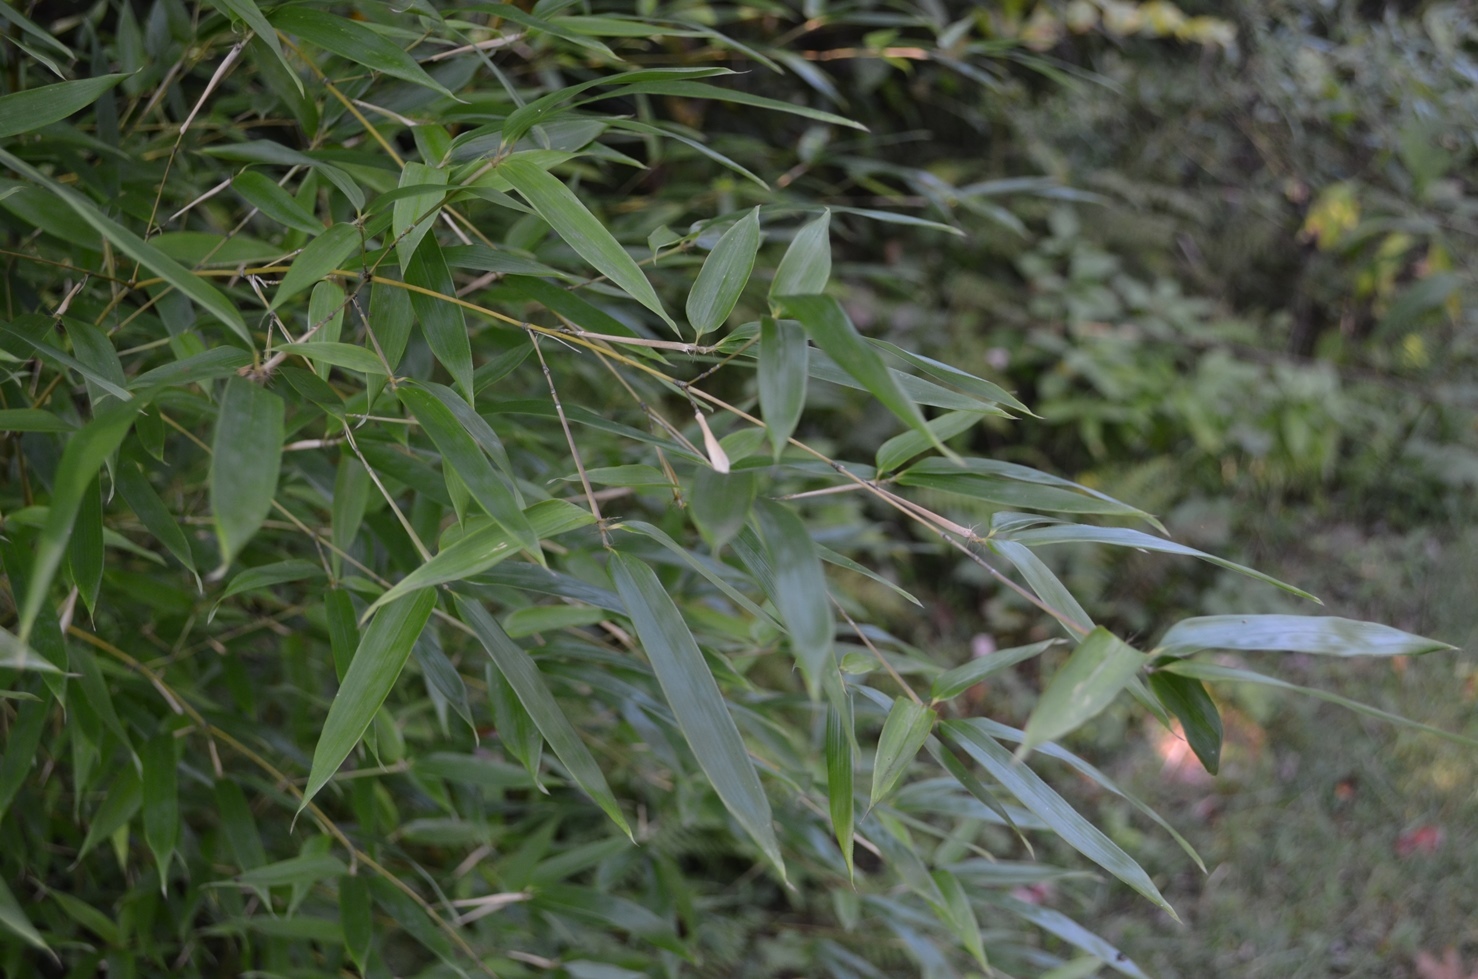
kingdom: Plantae
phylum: Tracheophyta
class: Liliopsida
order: Poales
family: Poaceae
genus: Phyllostachys
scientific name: Phyllostachys aurea
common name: Golden bamboo
